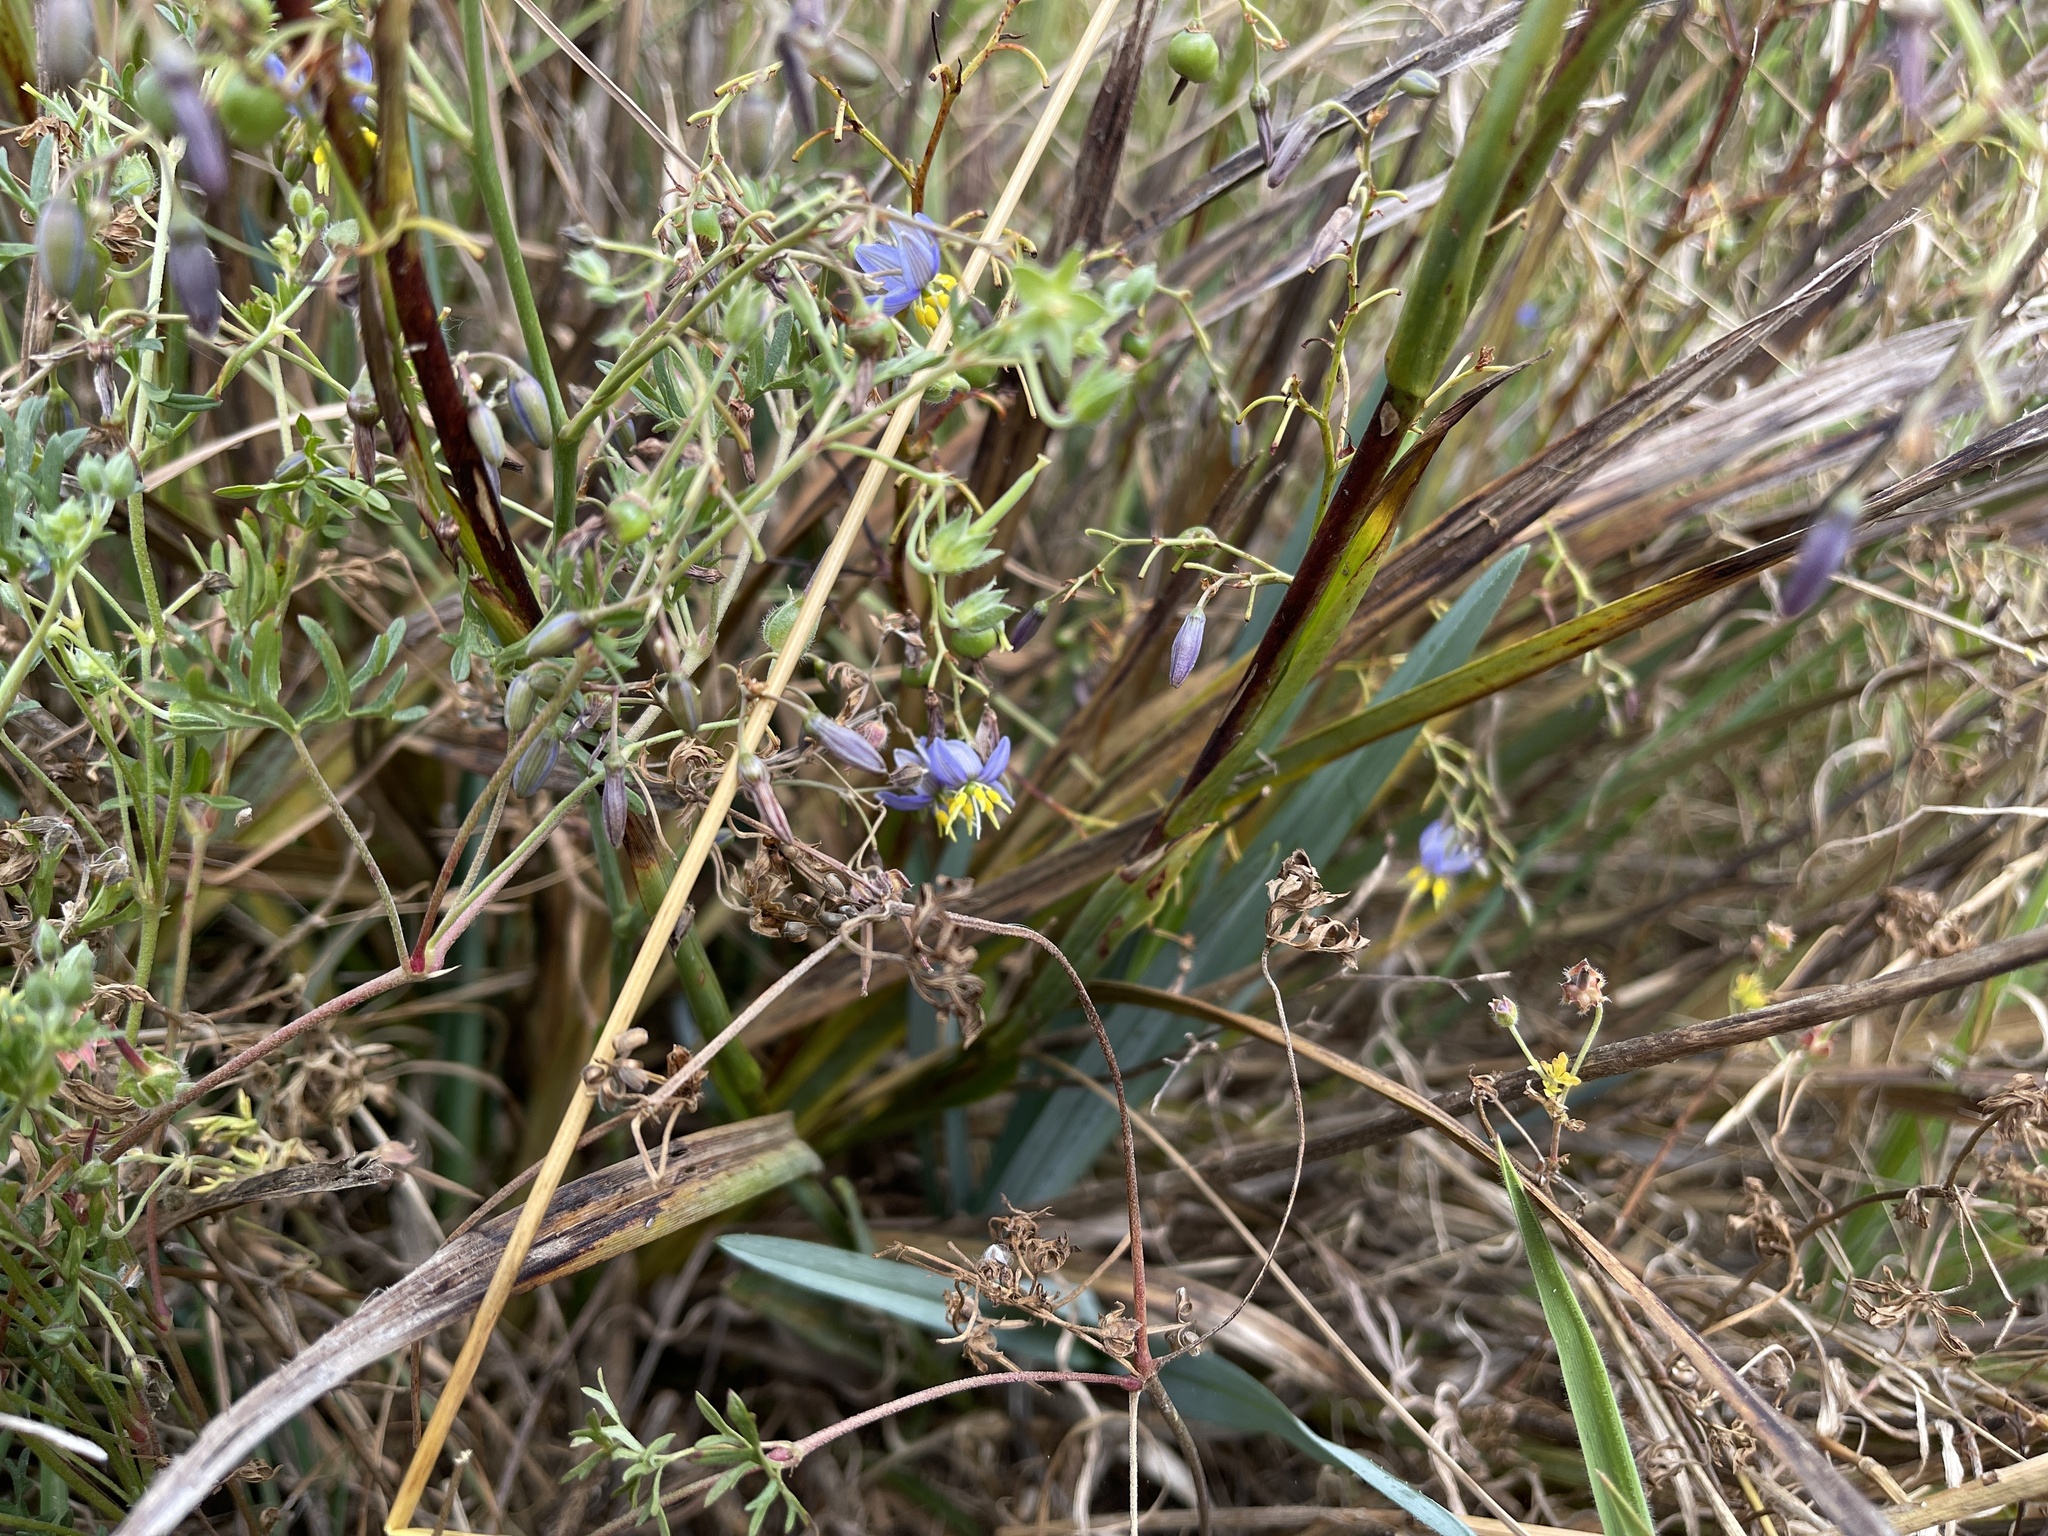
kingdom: Plantae
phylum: Tracheophyta
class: Liliopsida
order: Asparagales
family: Asphodelaceae
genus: Dianella
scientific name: Dianella longifolia
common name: Blue flax-lily
